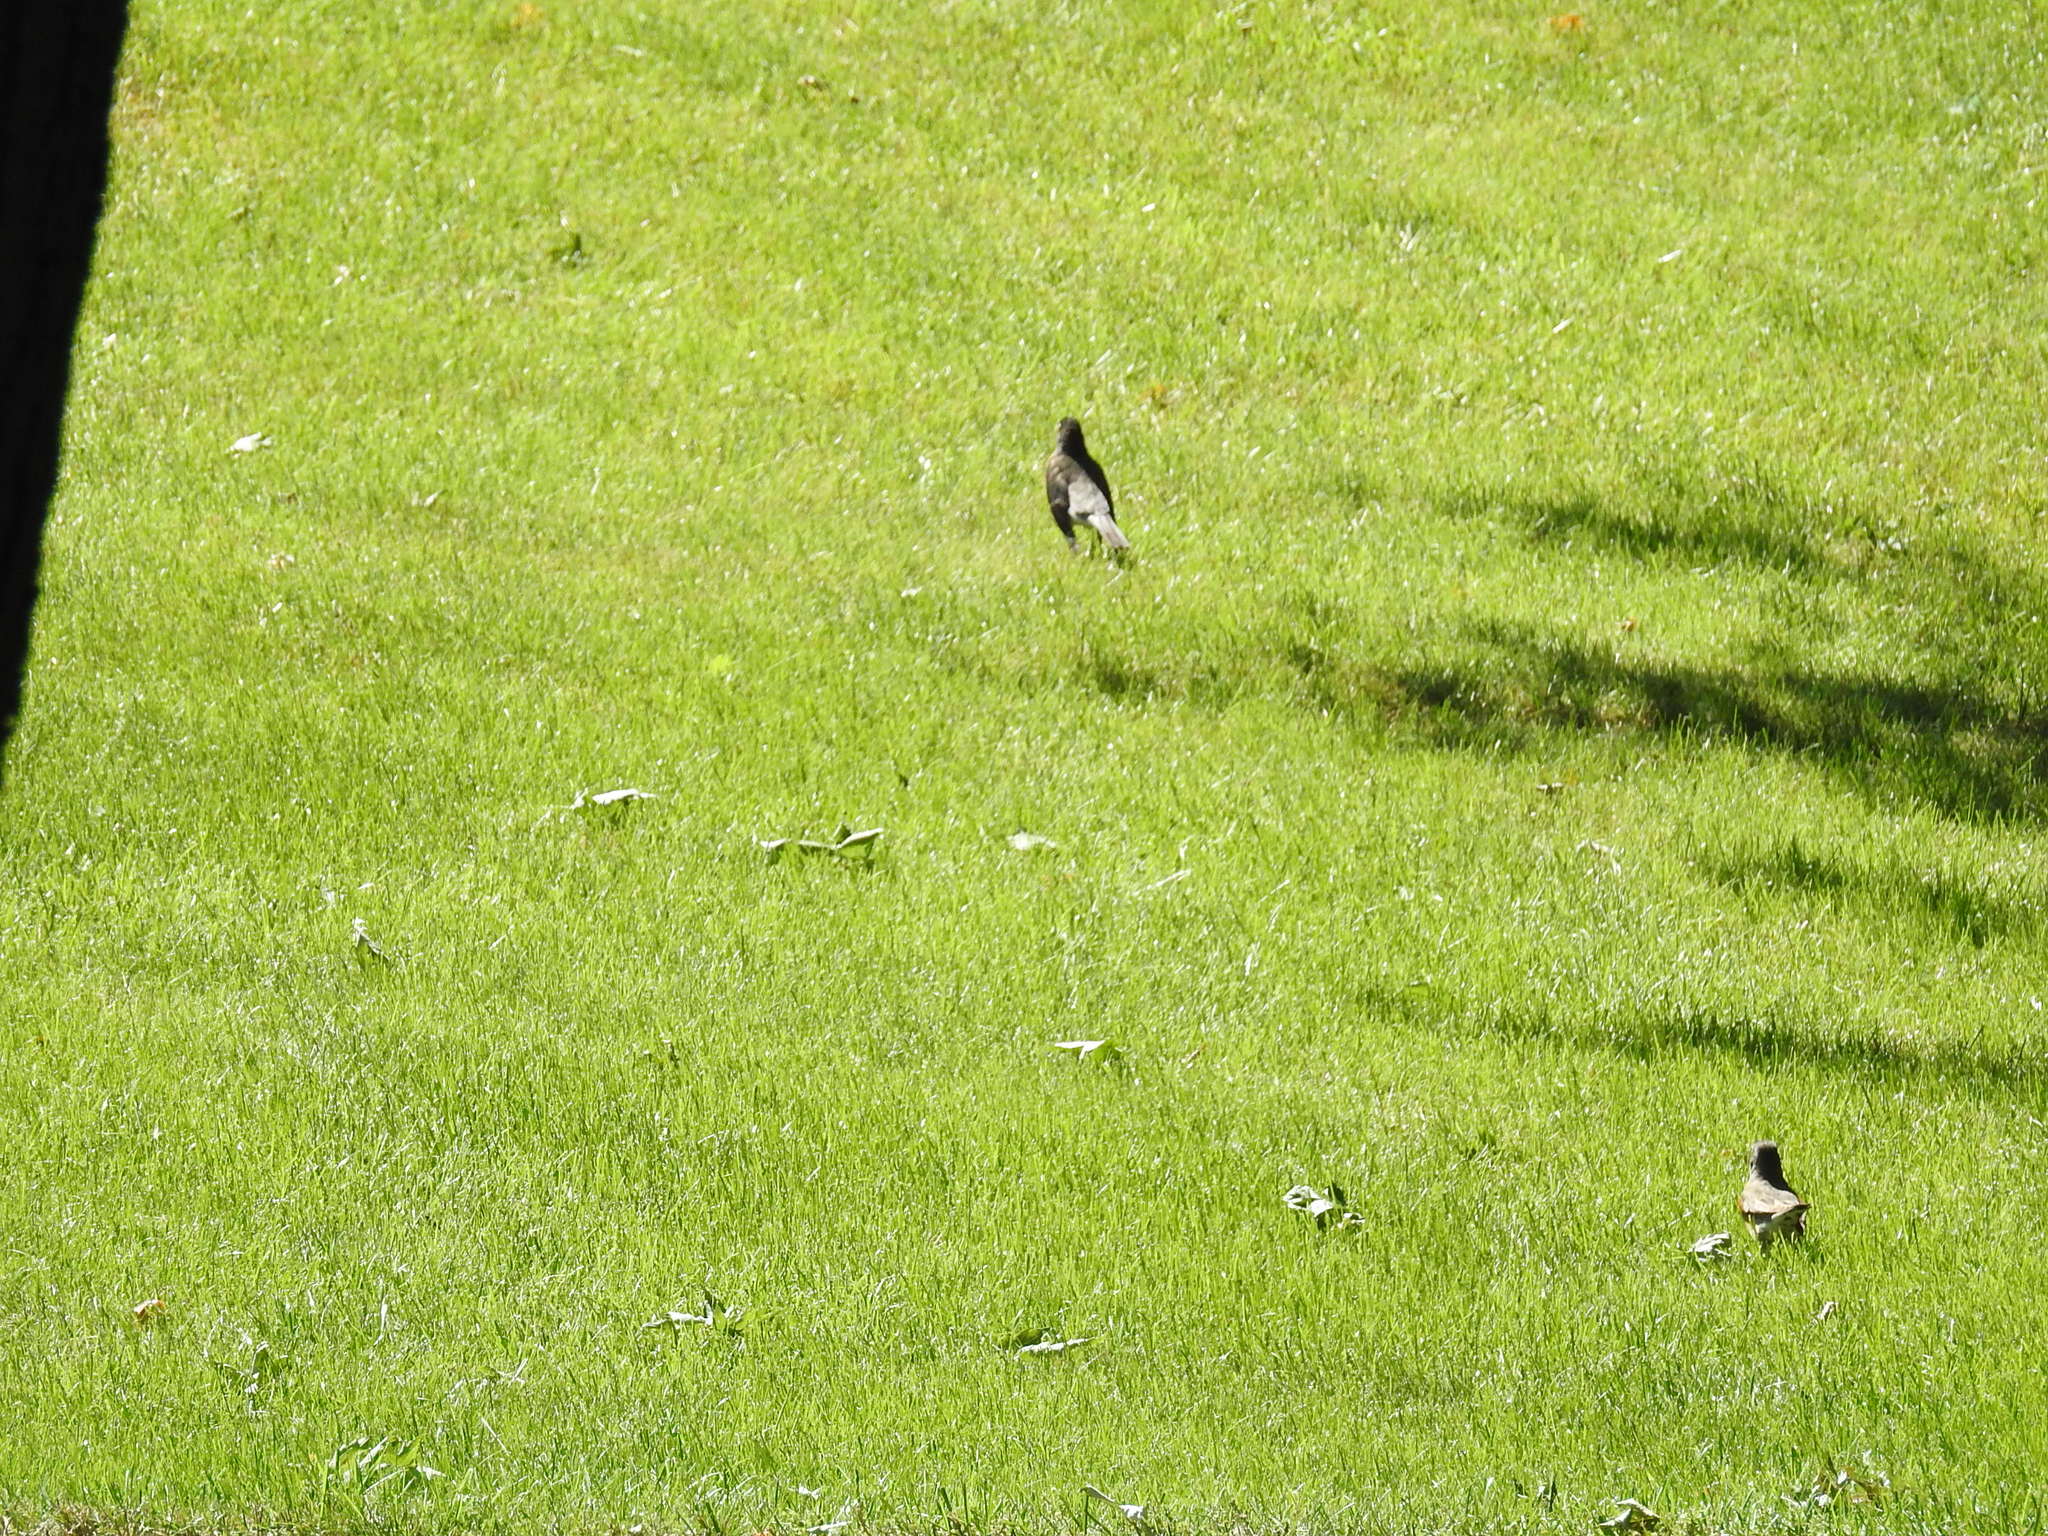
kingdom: Animalia
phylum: Chordata
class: Aves
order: Passeriformes
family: Turdidae
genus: Turdus
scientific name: Turdus migratorius
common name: American robin
